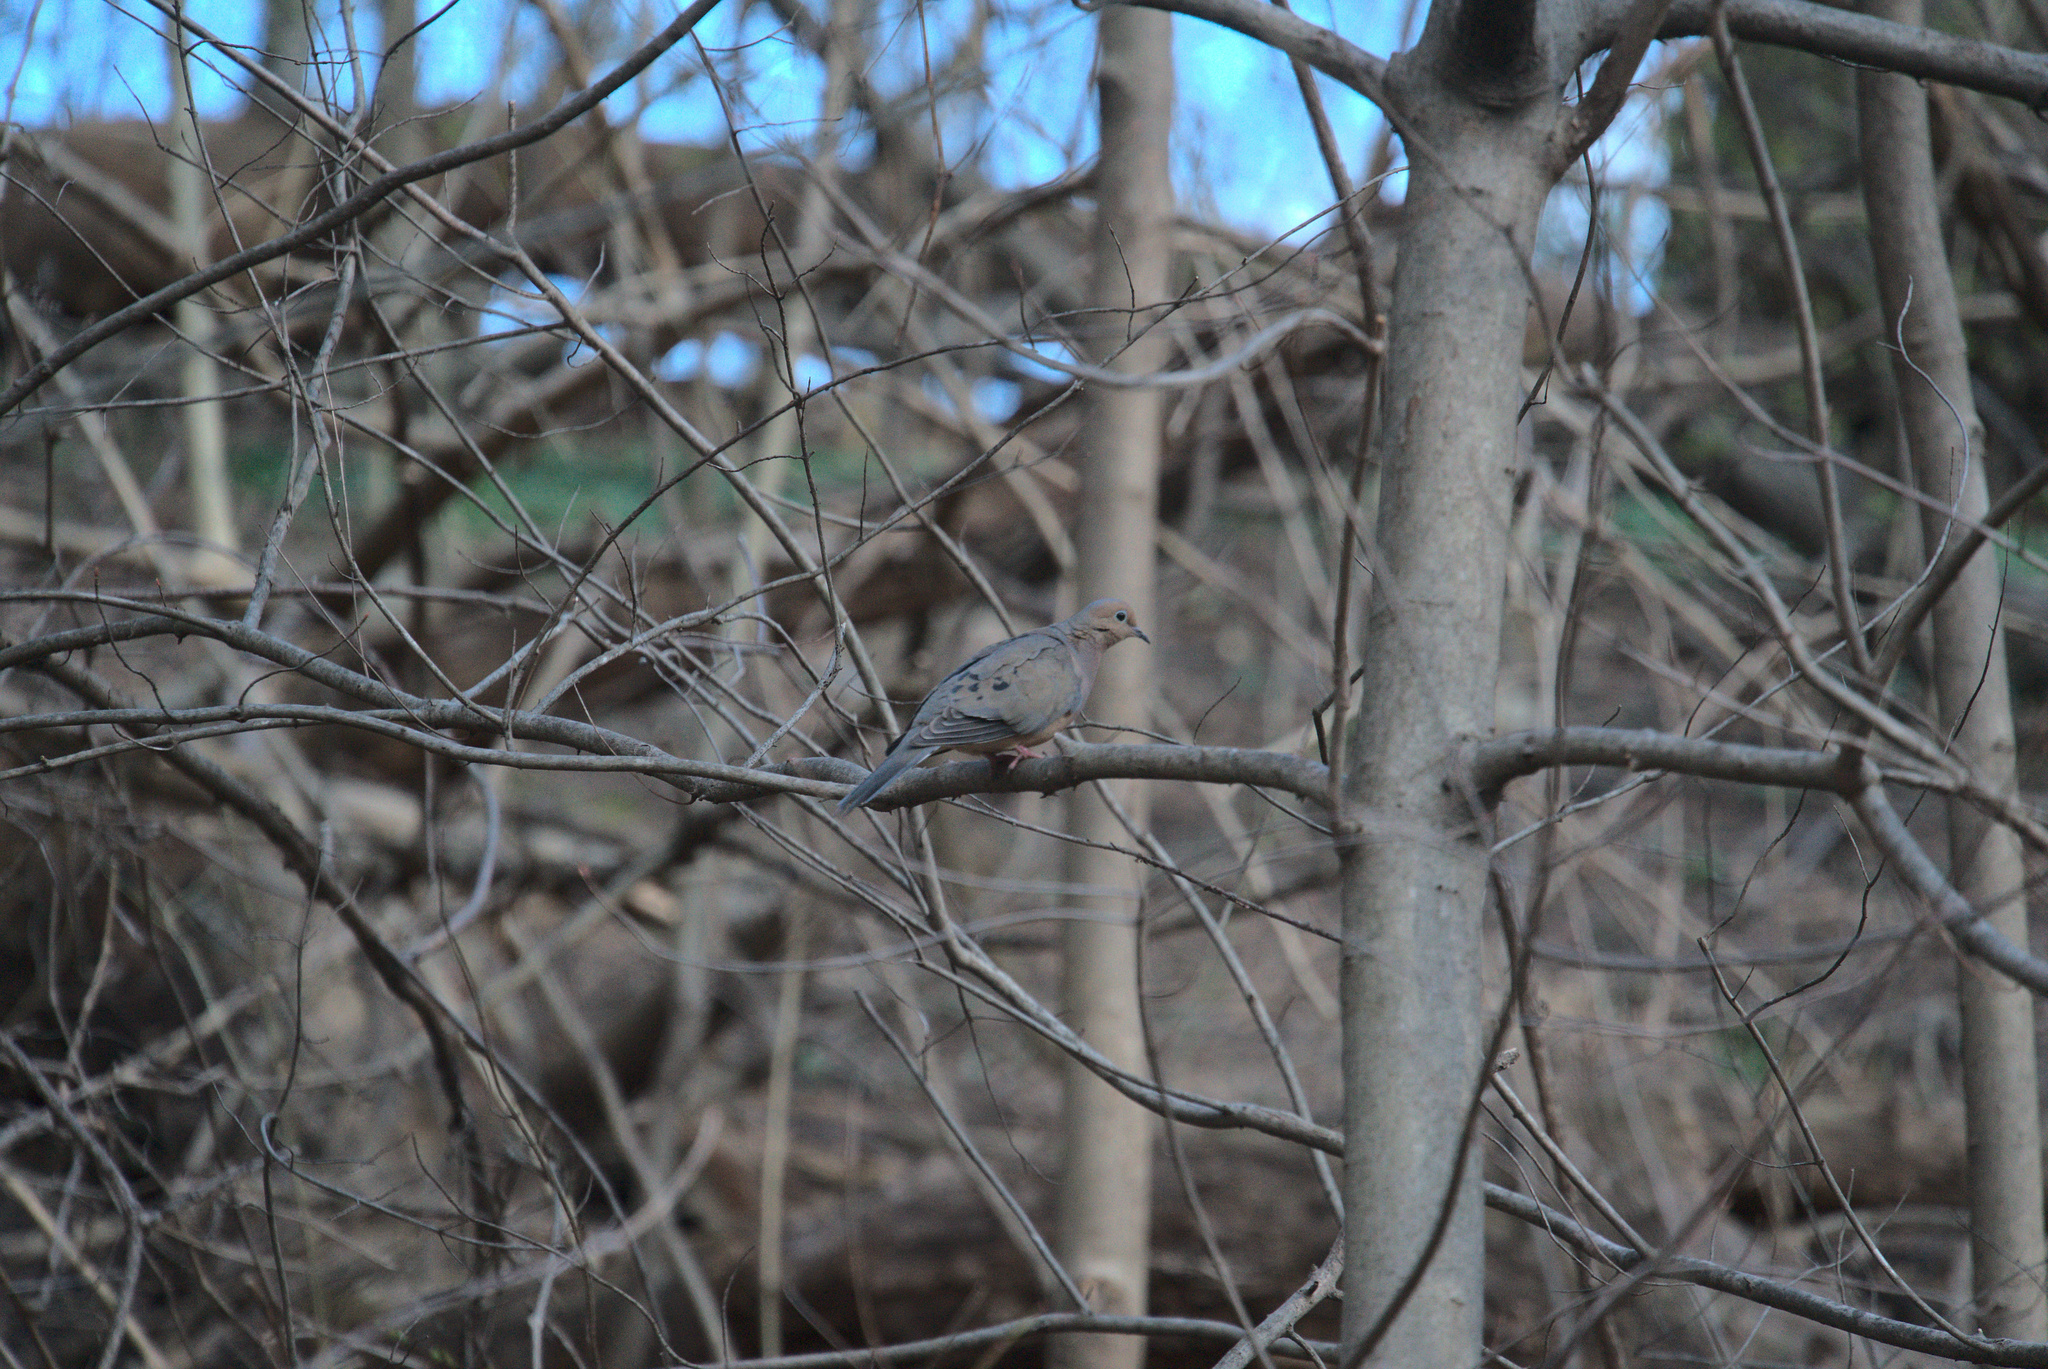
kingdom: Animalia
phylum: Chordata
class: Aves
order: Columbiformes
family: Columbidae
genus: Zenaida
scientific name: Zenaida macroura
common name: Mourning dove
